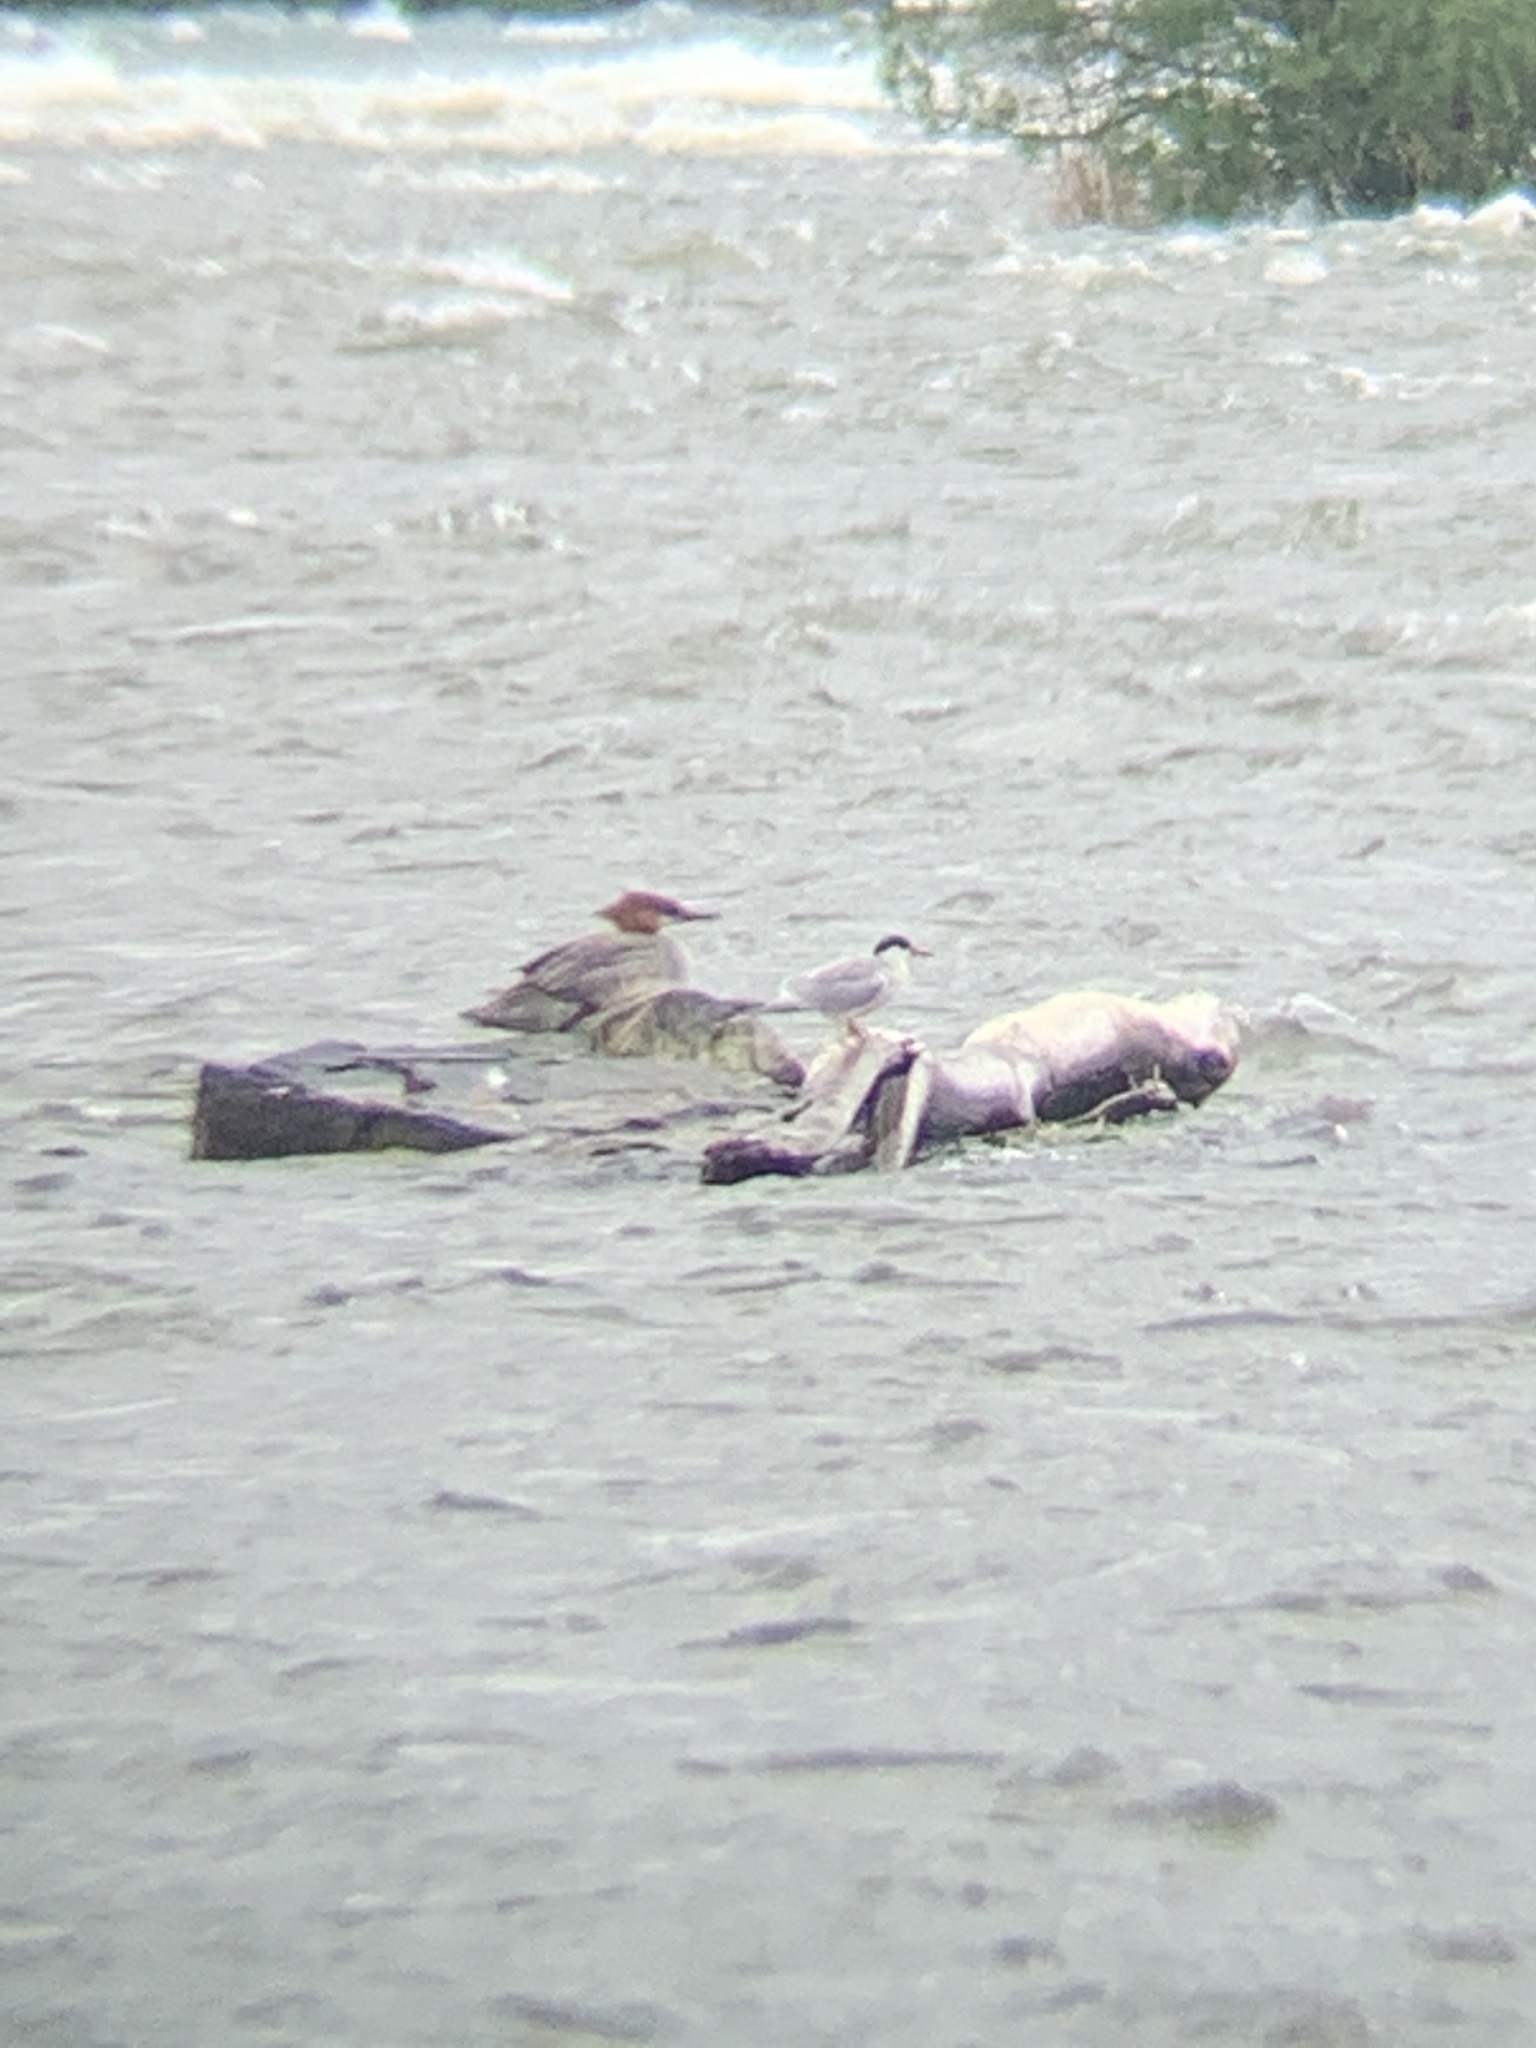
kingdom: Animalia
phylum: Chordata
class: Aves
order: Charadriiformes
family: Laridae
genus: Sterna
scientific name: Sterna hirundo
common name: Common tern
